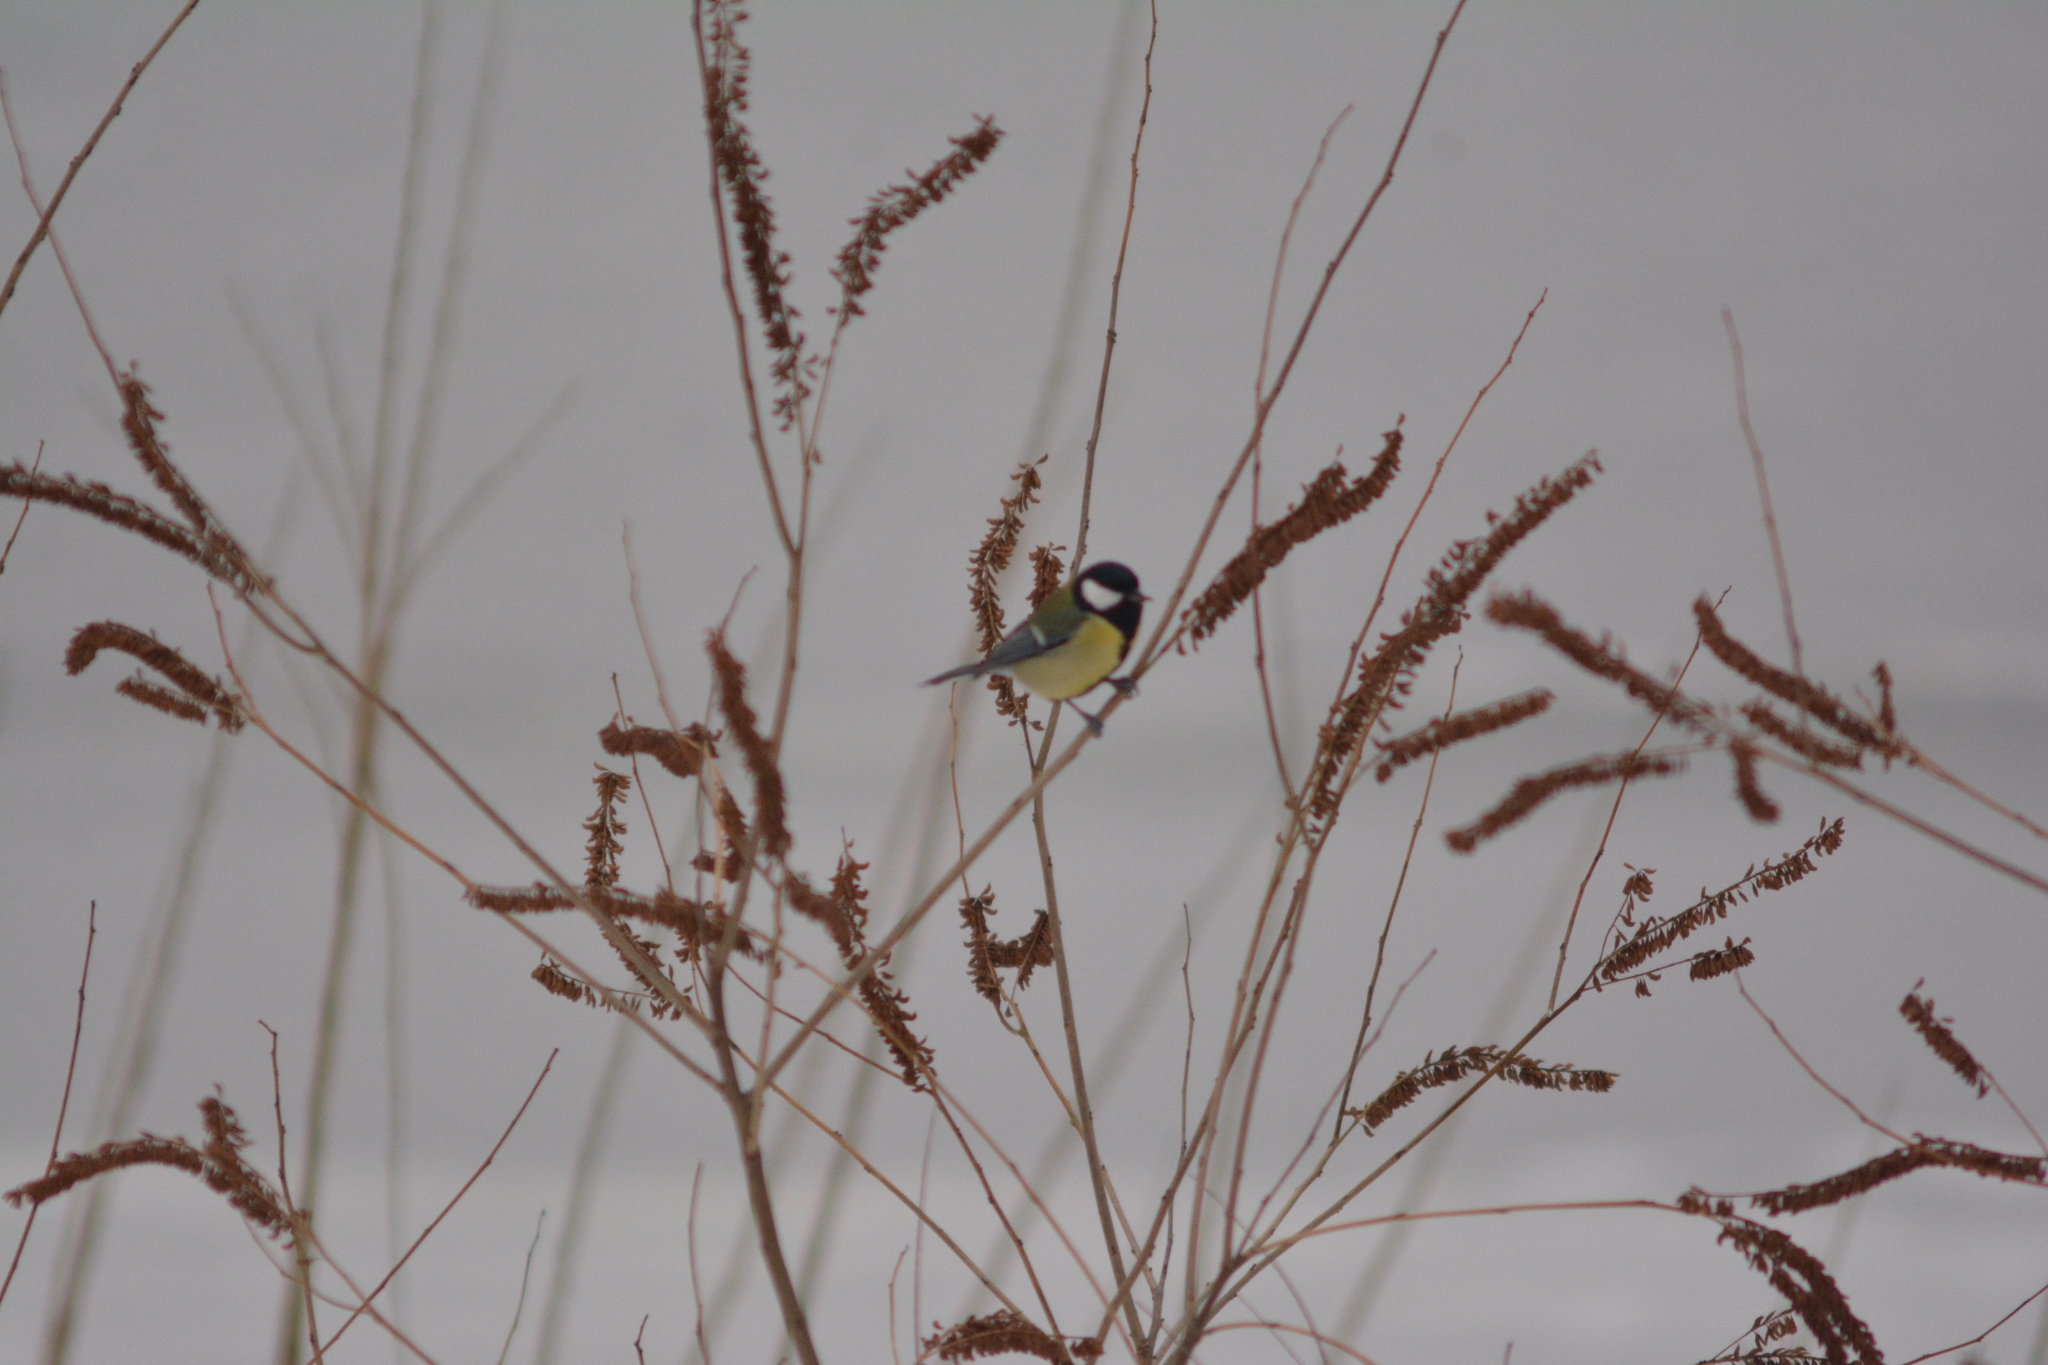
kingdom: Animalia
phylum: Chordata
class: Aves
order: Passeriformes
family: Paridae
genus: Parus
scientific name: Parus major
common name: Great tit
